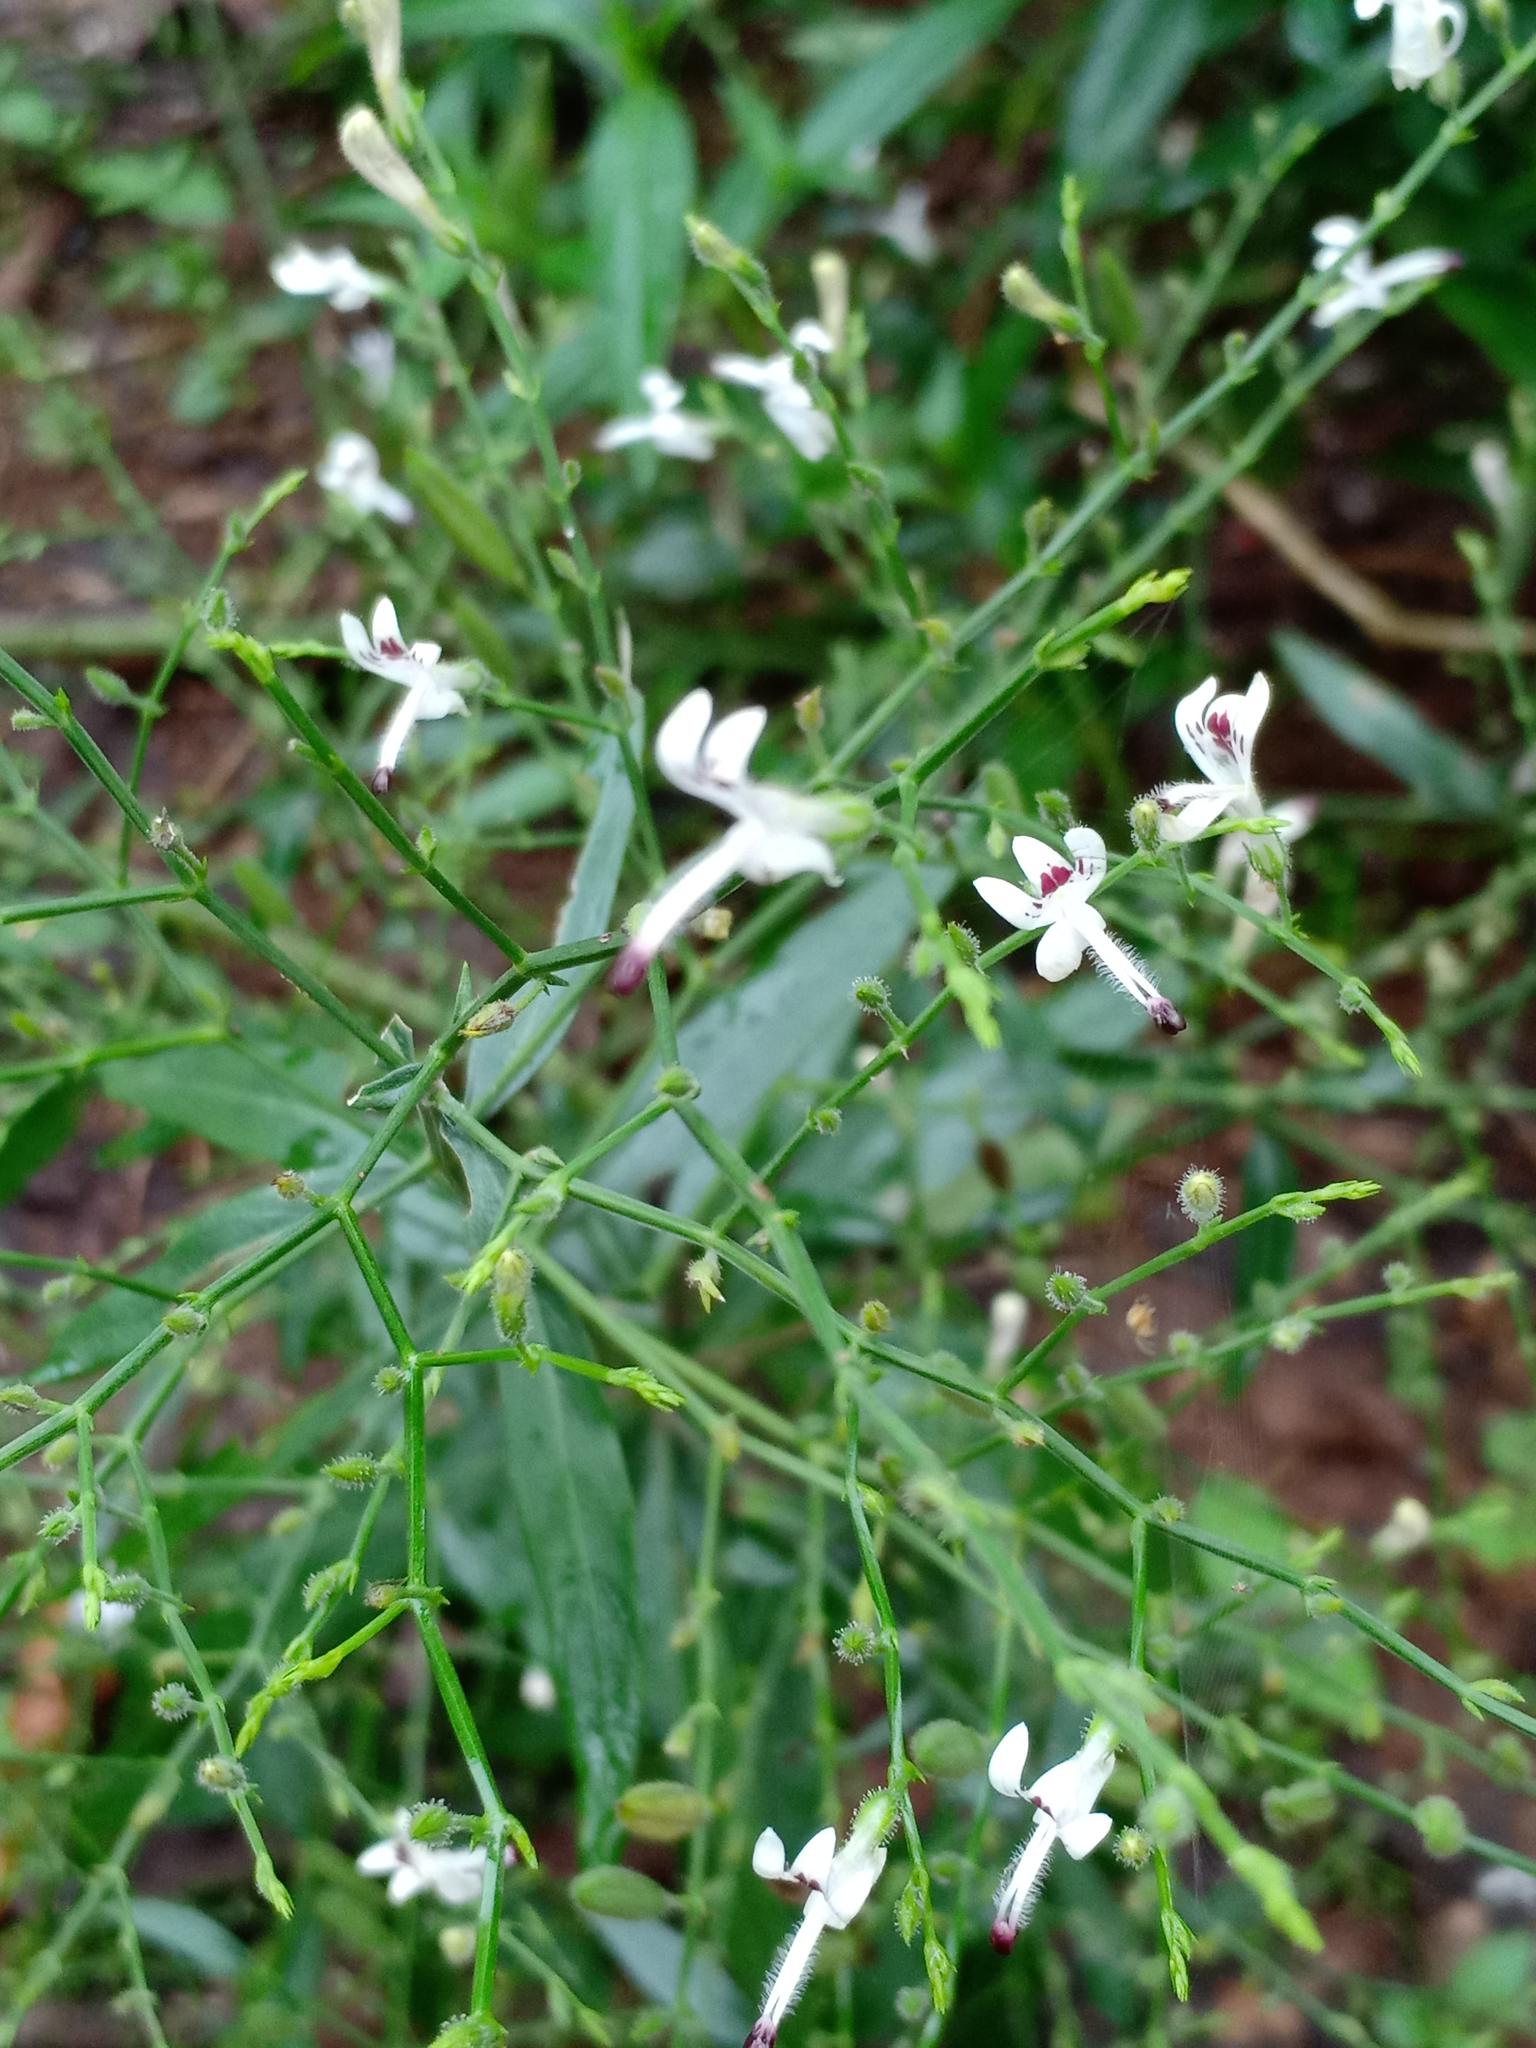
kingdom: Plantae
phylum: Tracheophyta
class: Magnoliopsida
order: Lamiales
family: Acanthaceae
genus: Andrographis
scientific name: Andrographis paniculata
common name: Green chireta
